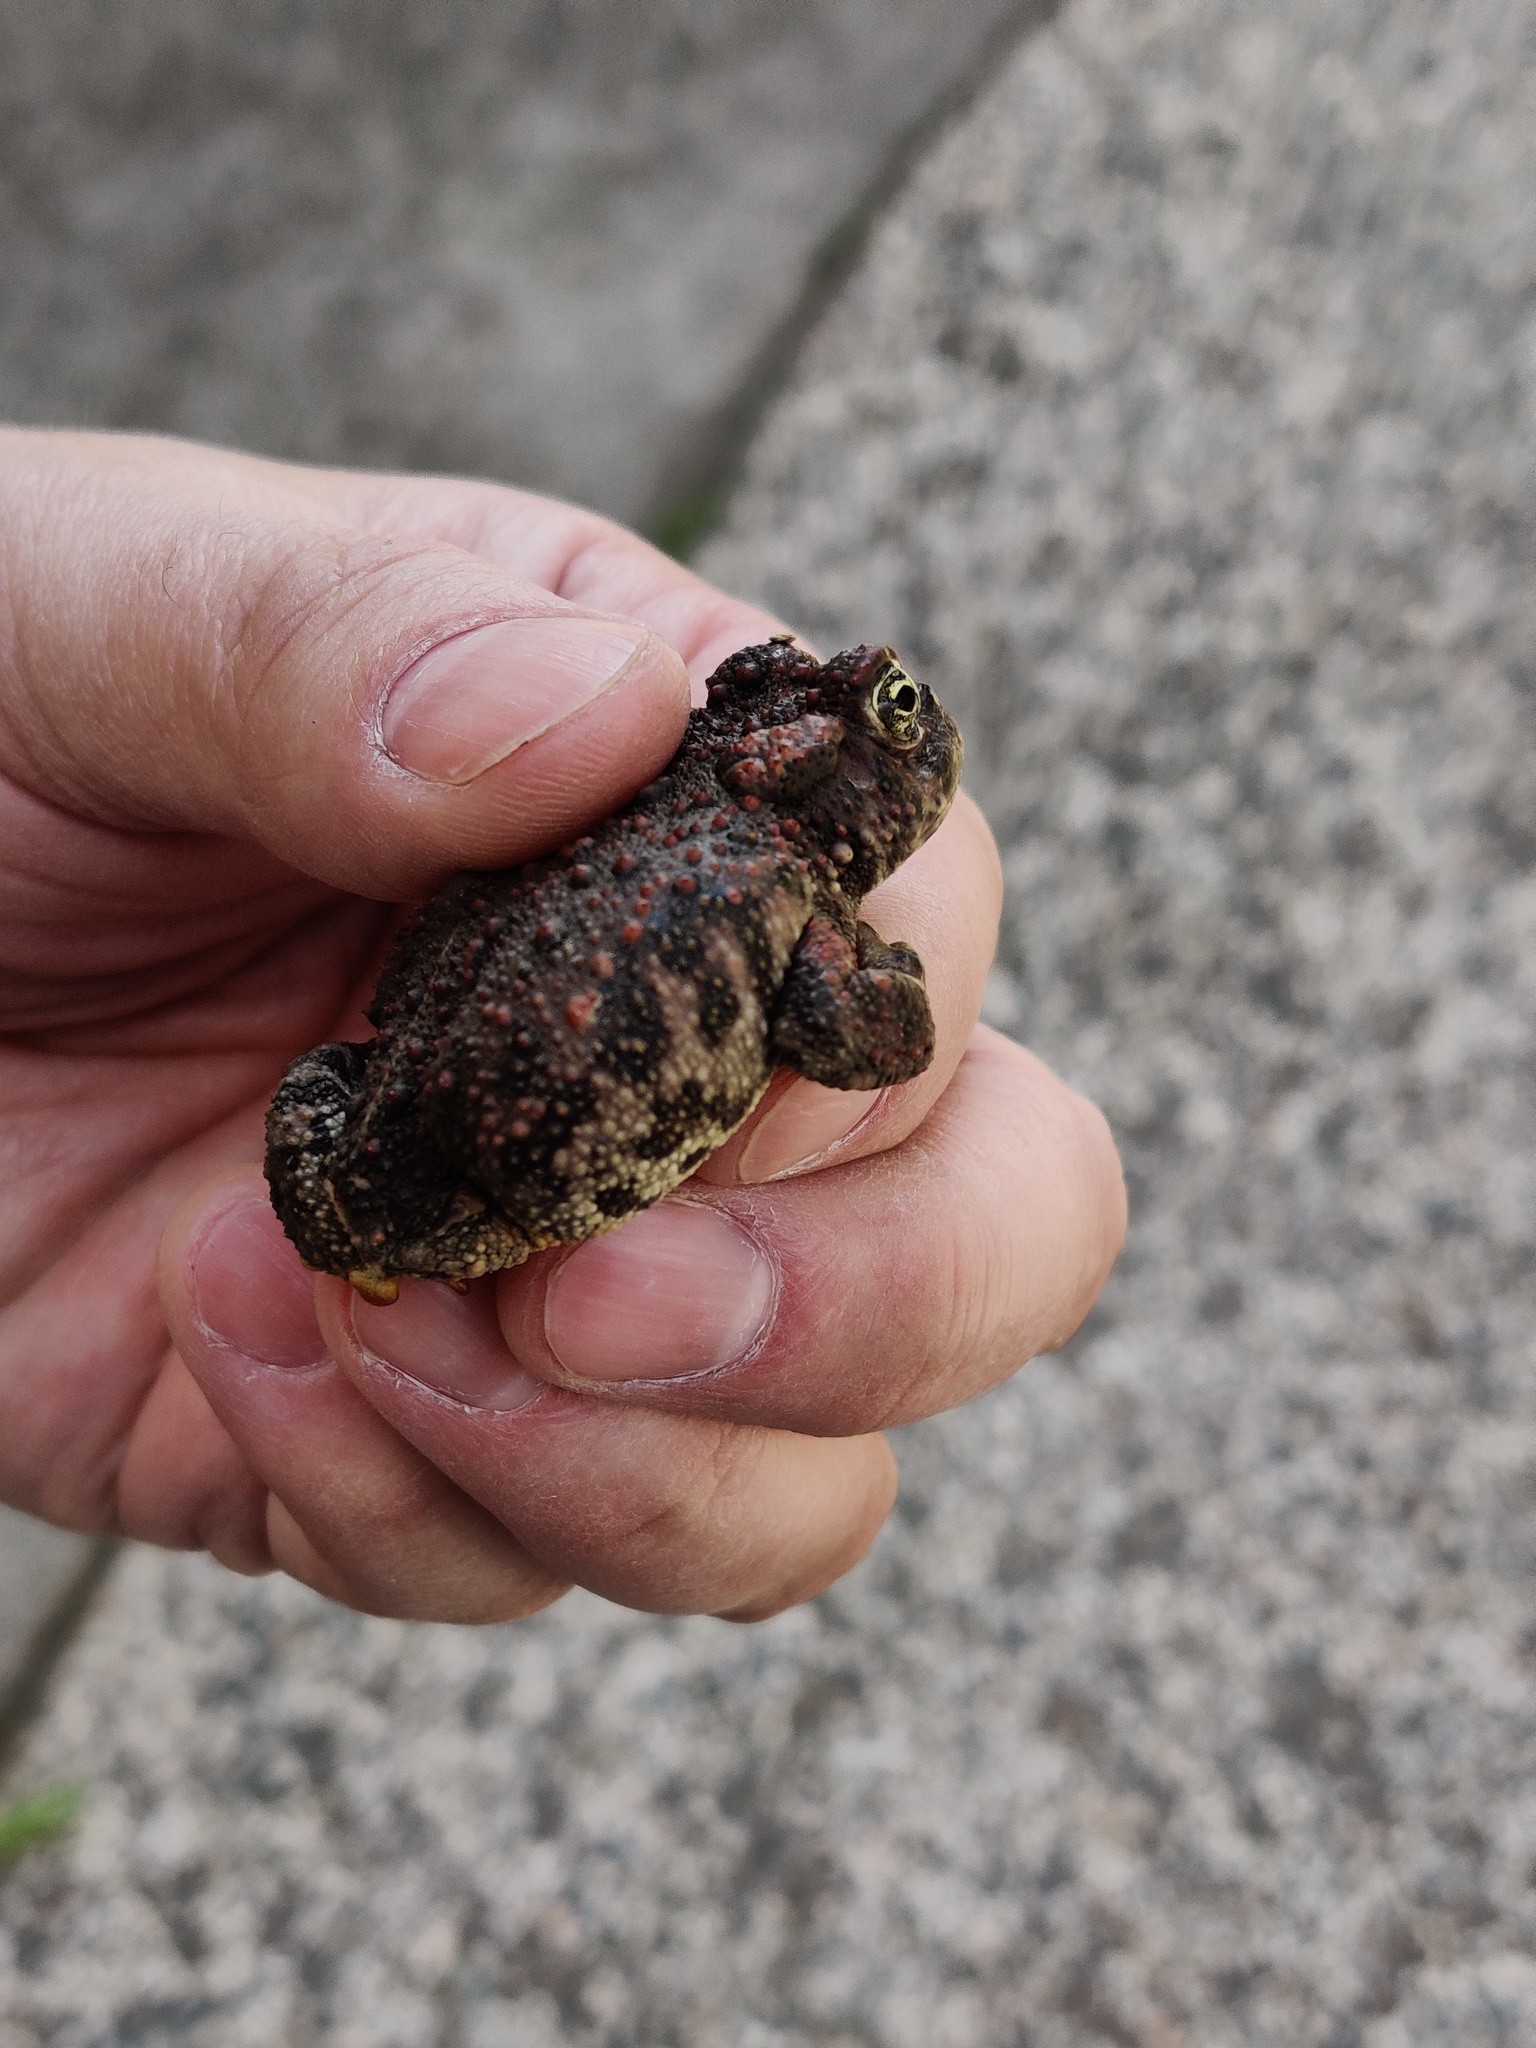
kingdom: Animalia
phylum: Chordata
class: Amphibia
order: Anura
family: Bufonidae
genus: Anaxyrus
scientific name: Anaxyrus boreas
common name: Western toad
